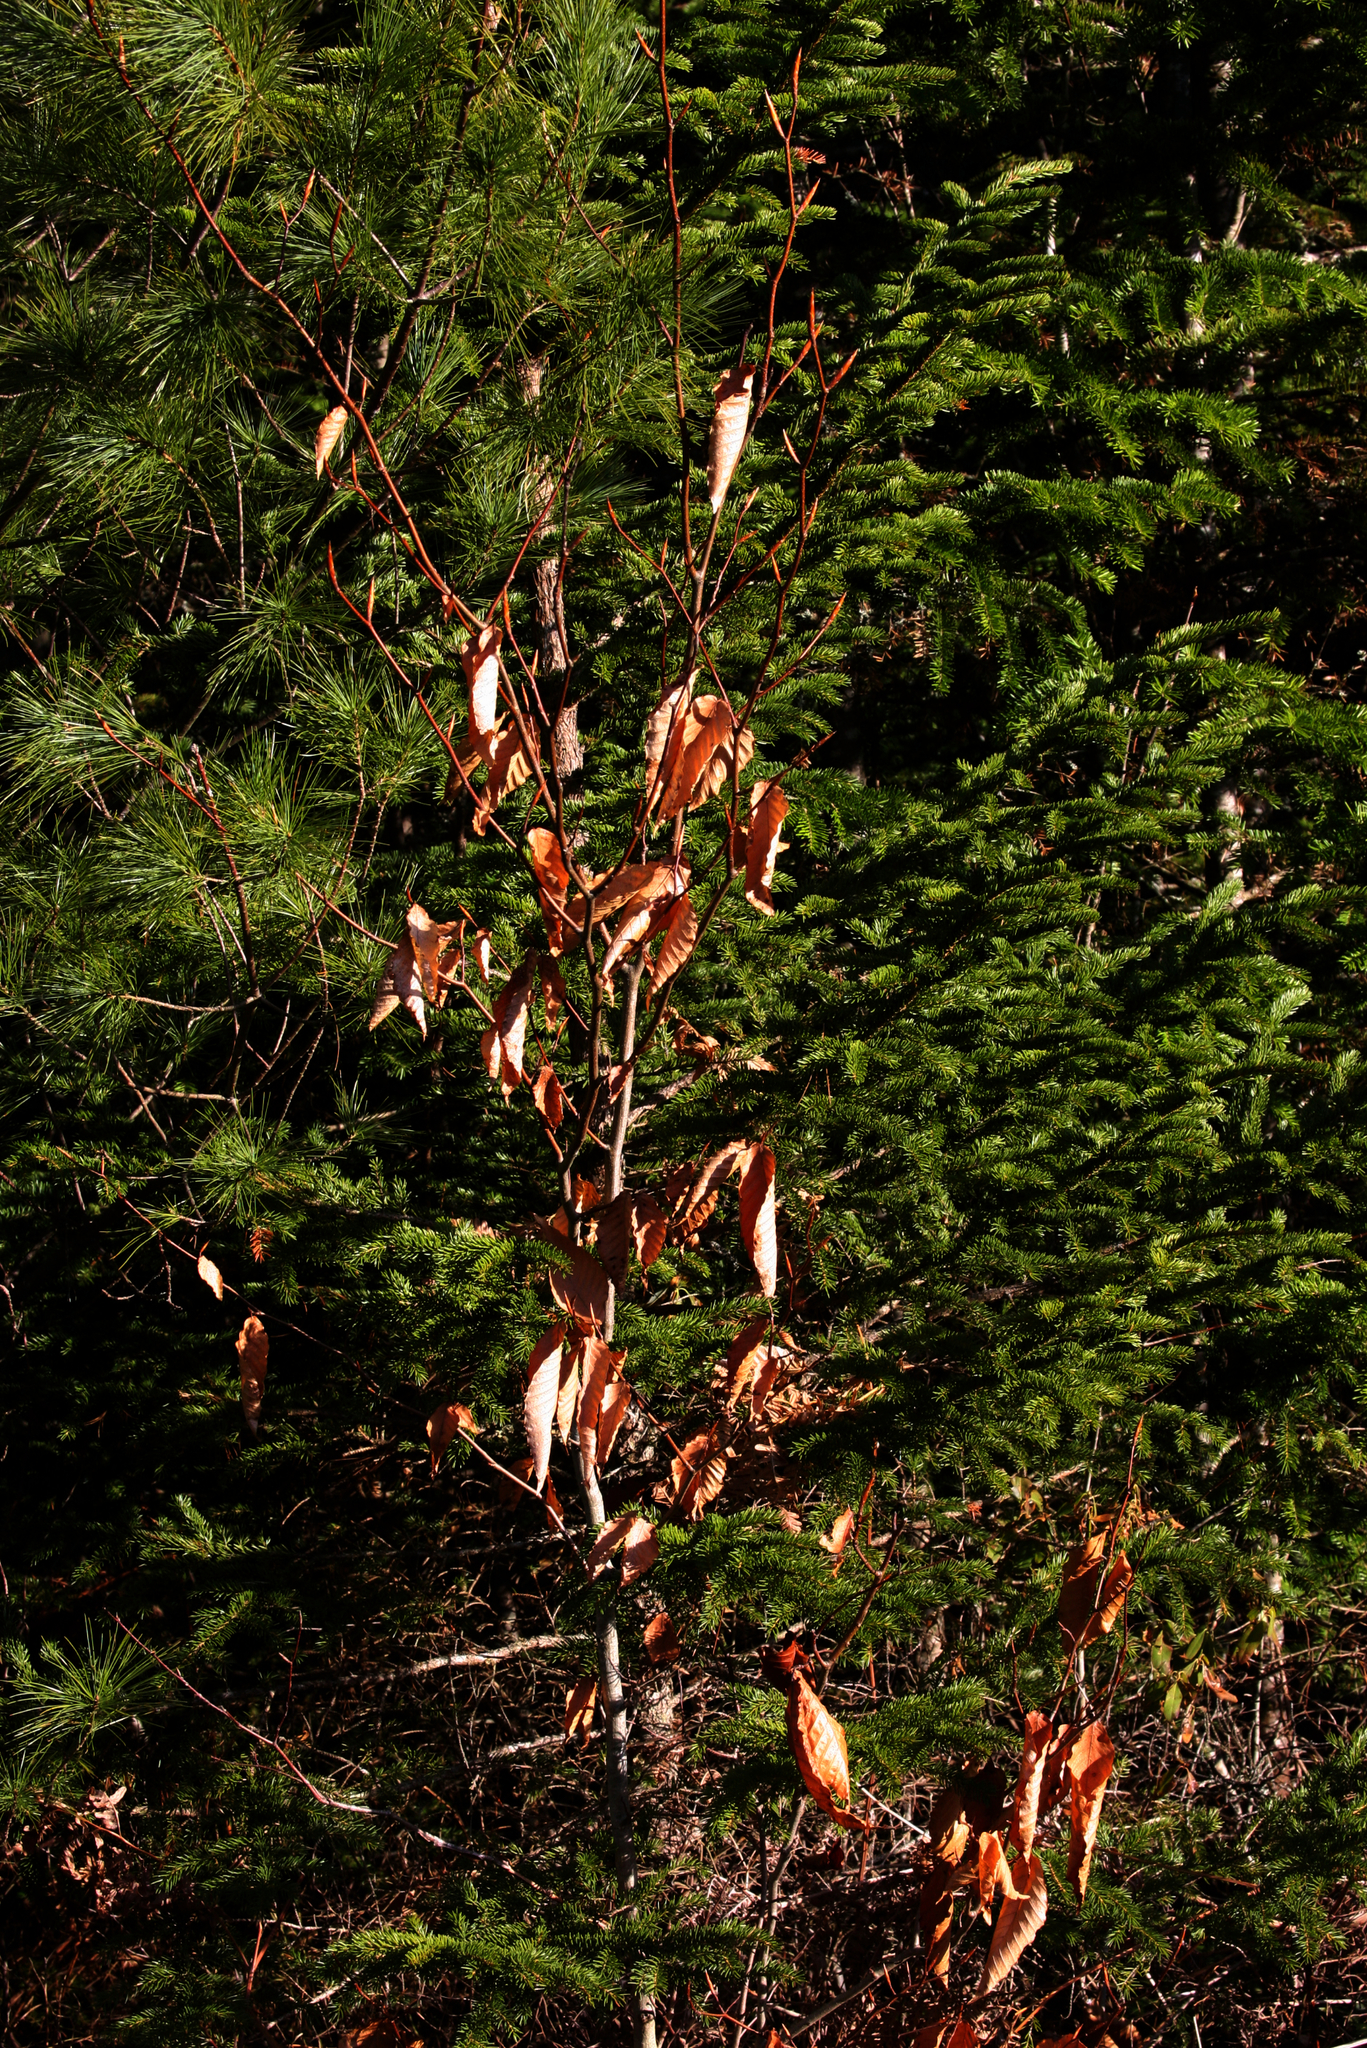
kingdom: Plantae
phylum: Tracheophyta
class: Magnoliopsida
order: Fagales
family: Fagaceae
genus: Fagus
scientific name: Fagus grandifolia
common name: American beech
